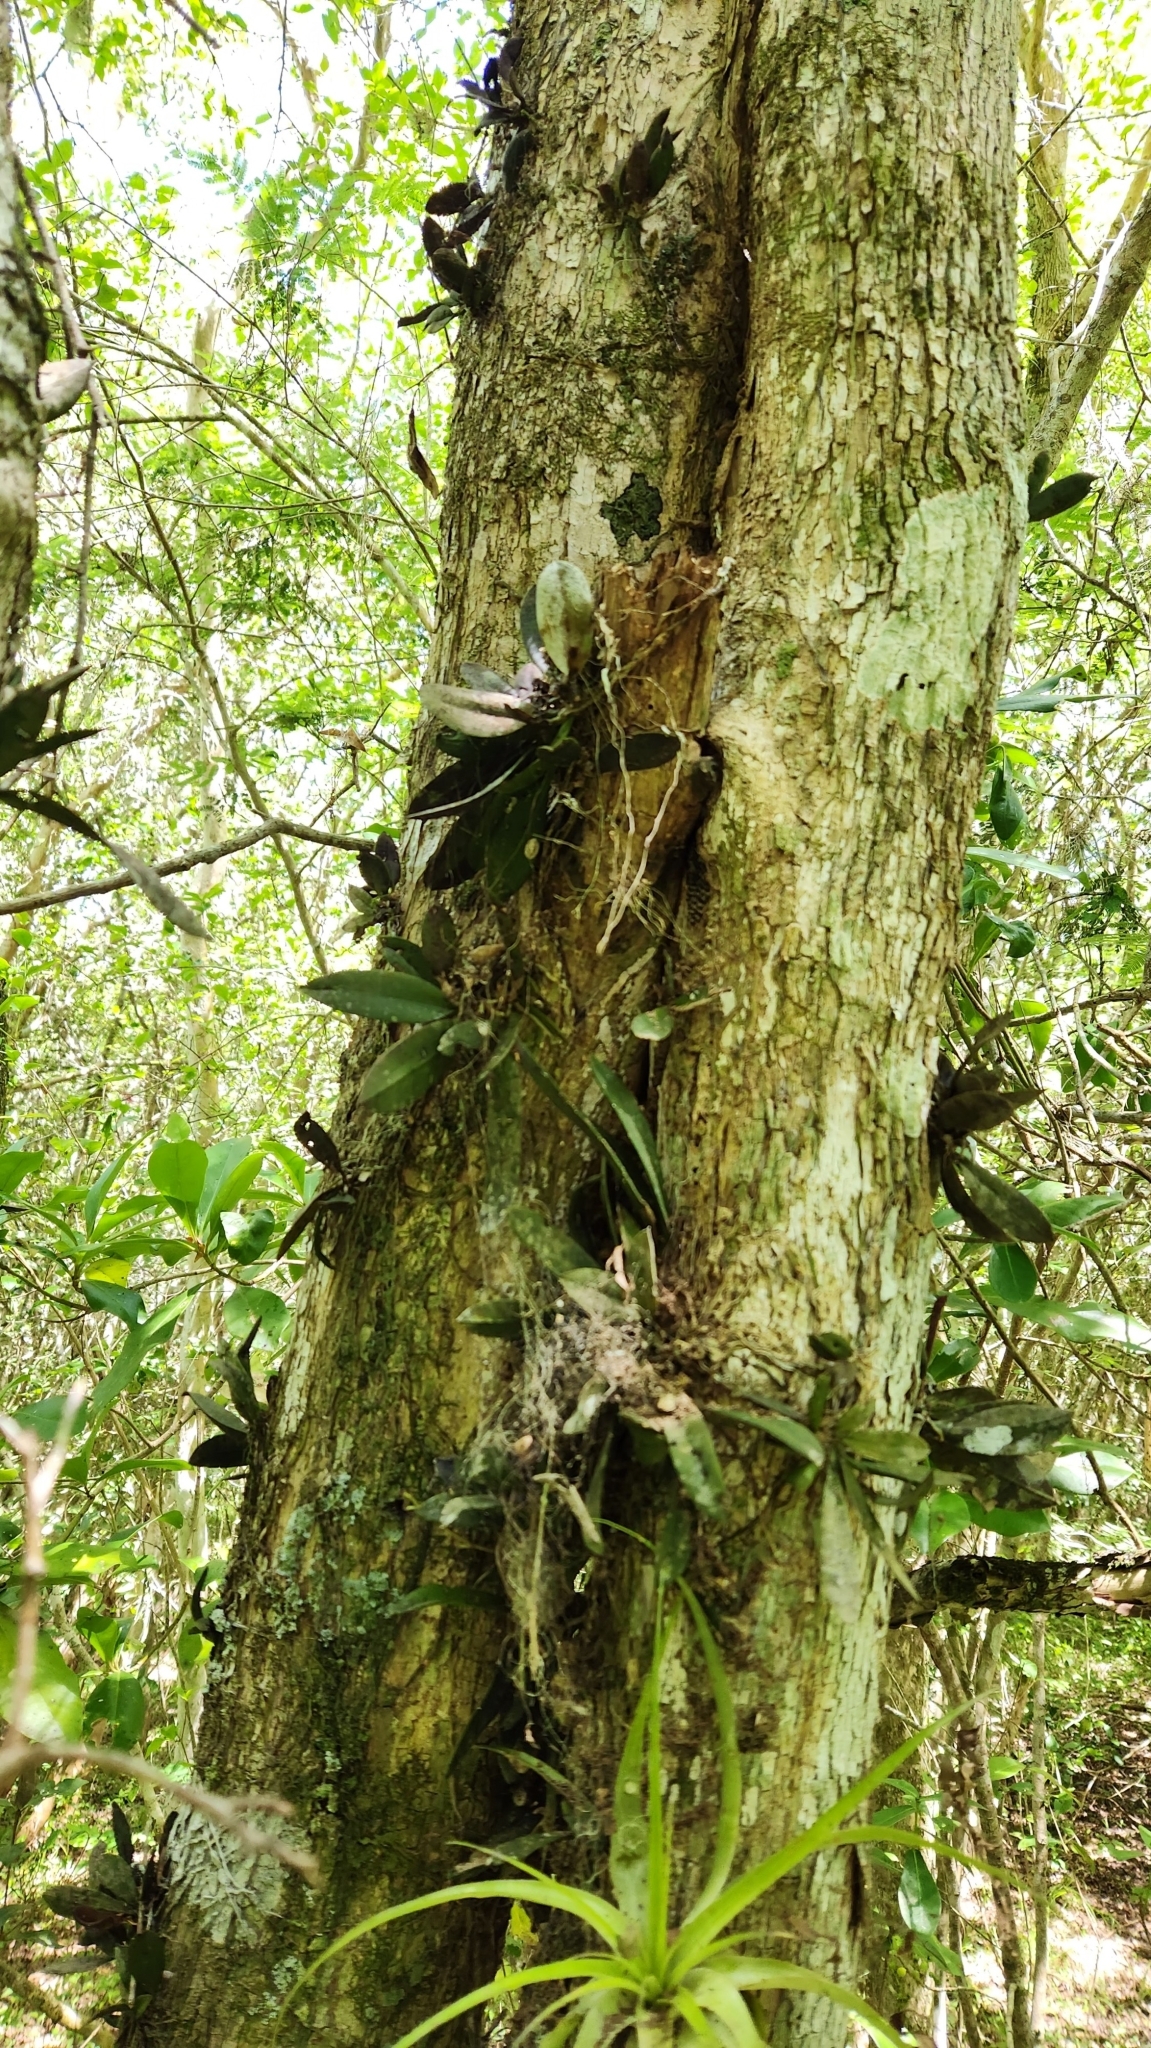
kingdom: Plantae
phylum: Tracheophyta
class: Liliopsida
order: Asparagales
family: Orchidaceae
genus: Trichocentrum
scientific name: Trichocentrum pumilum
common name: Mule-ear orchid
